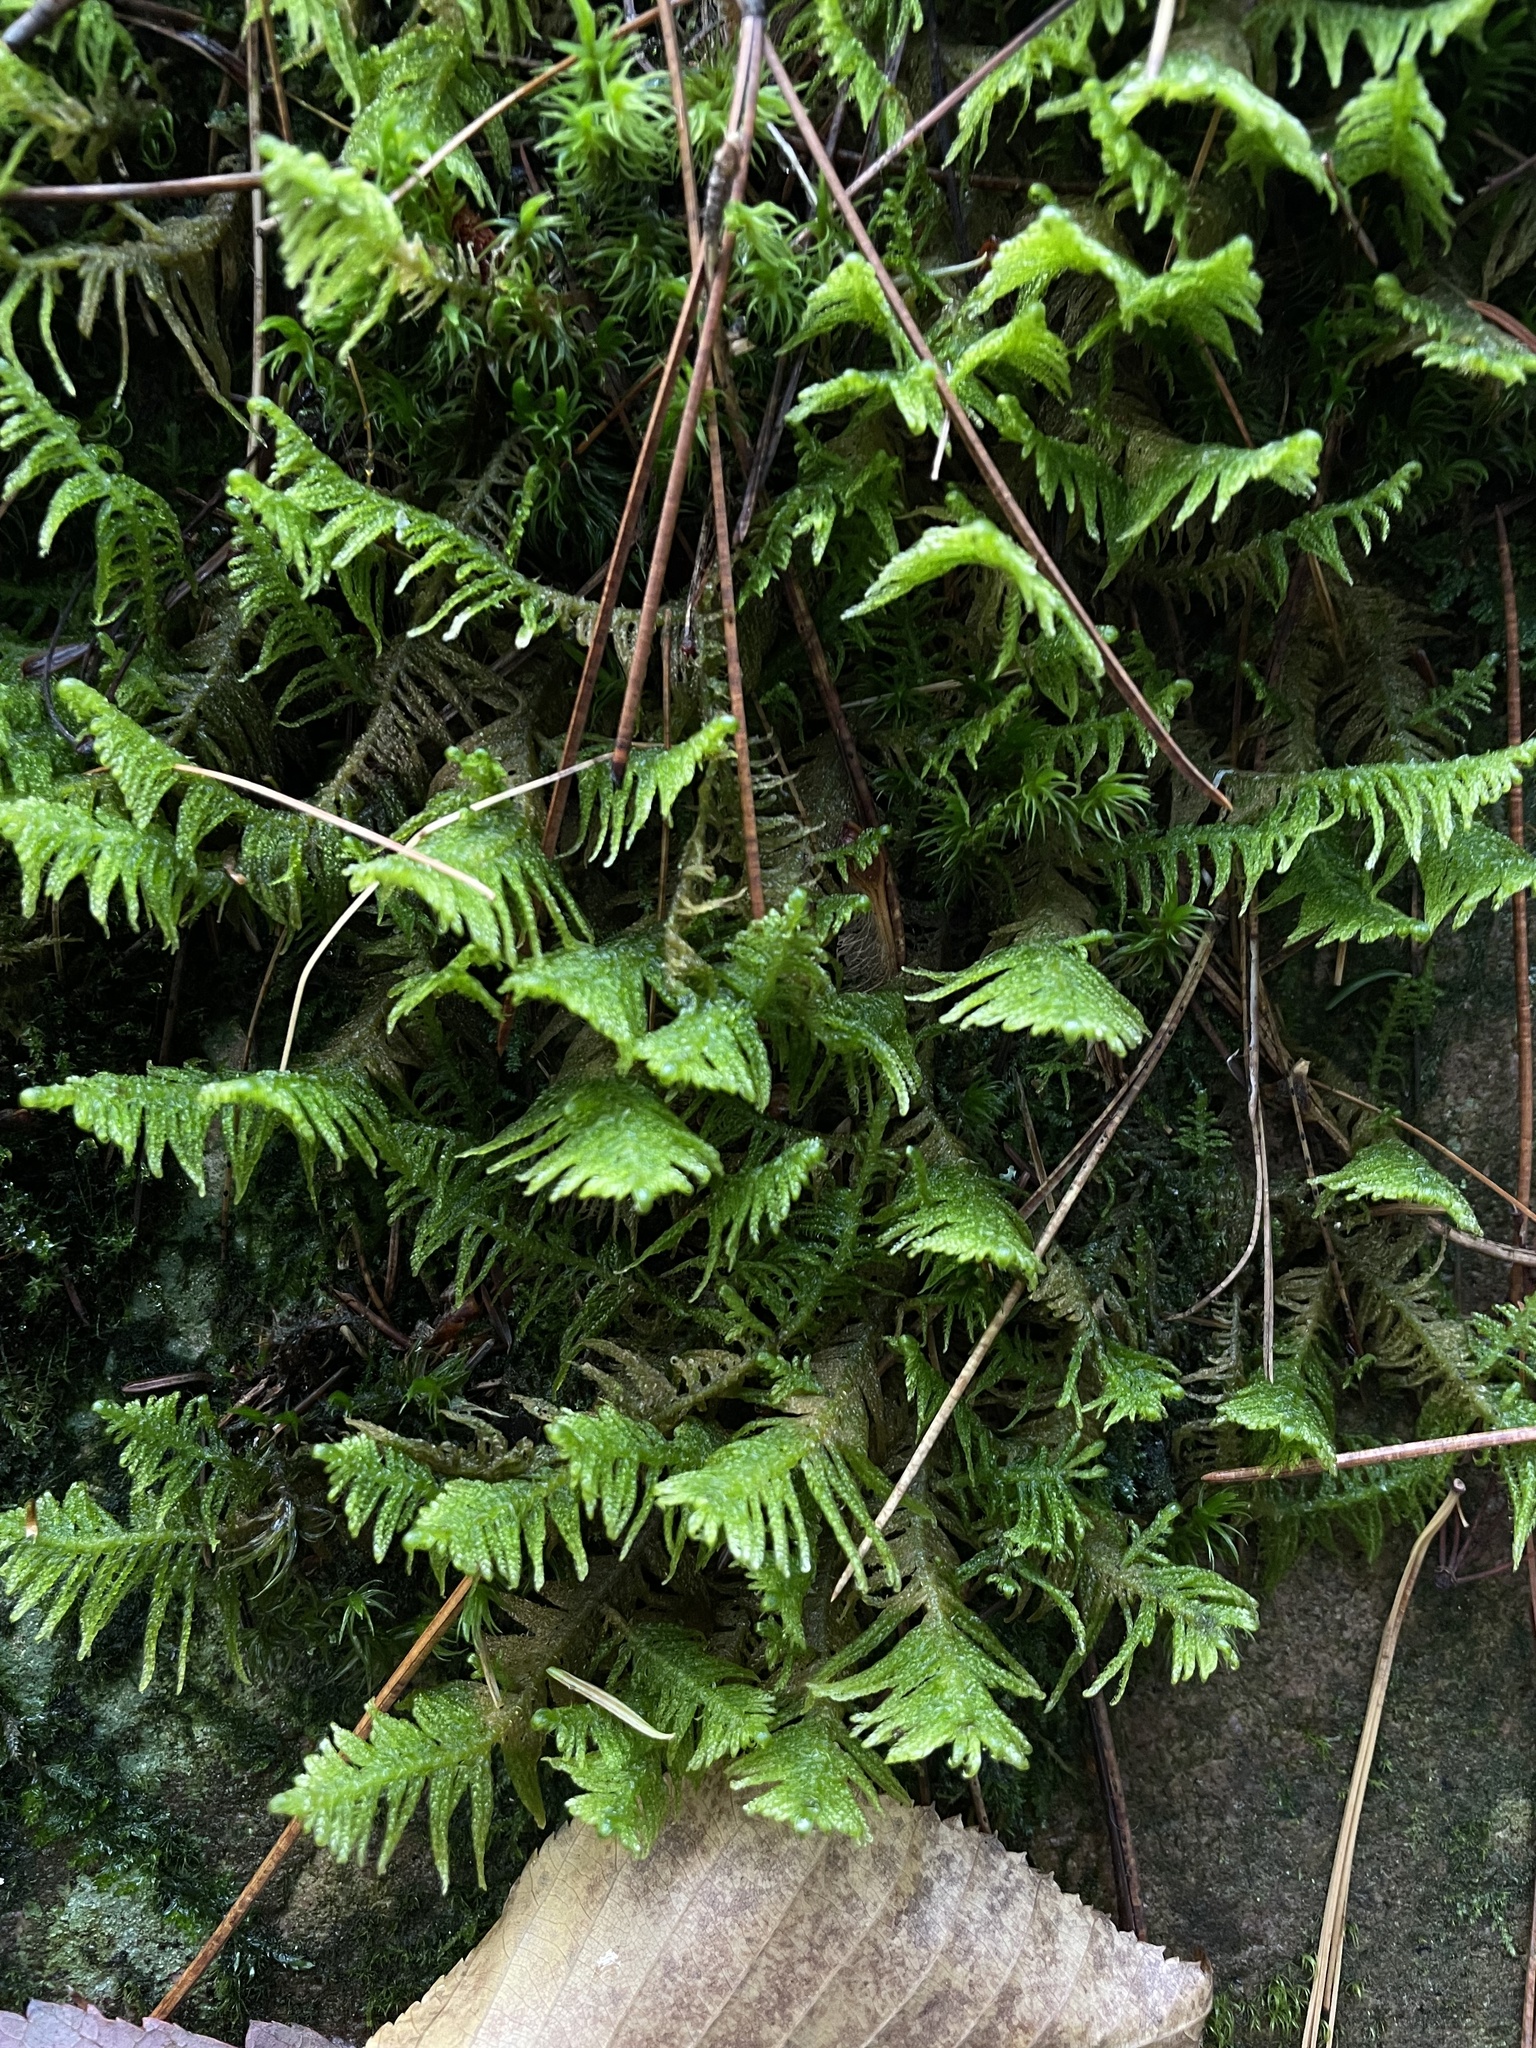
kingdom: Plantae
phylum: Bryophyta
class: Bryopsida
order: Hypnales
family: Pylaisiaceae
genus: Ptilium
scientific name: Ptilium crista-castrensis
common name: Knight's plume moss
